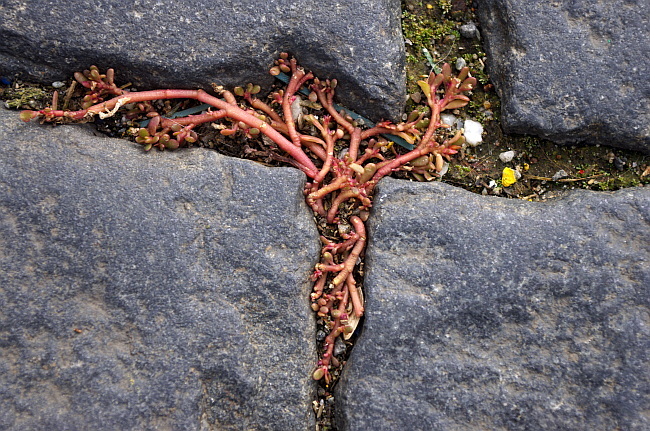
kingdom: Plantae
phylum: Tracheophyta
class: Magnoliopsida
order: Caryophyllales
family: Portulacaceae
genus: Portulaca
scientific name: Portulaca oleracea
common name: Common purslane
